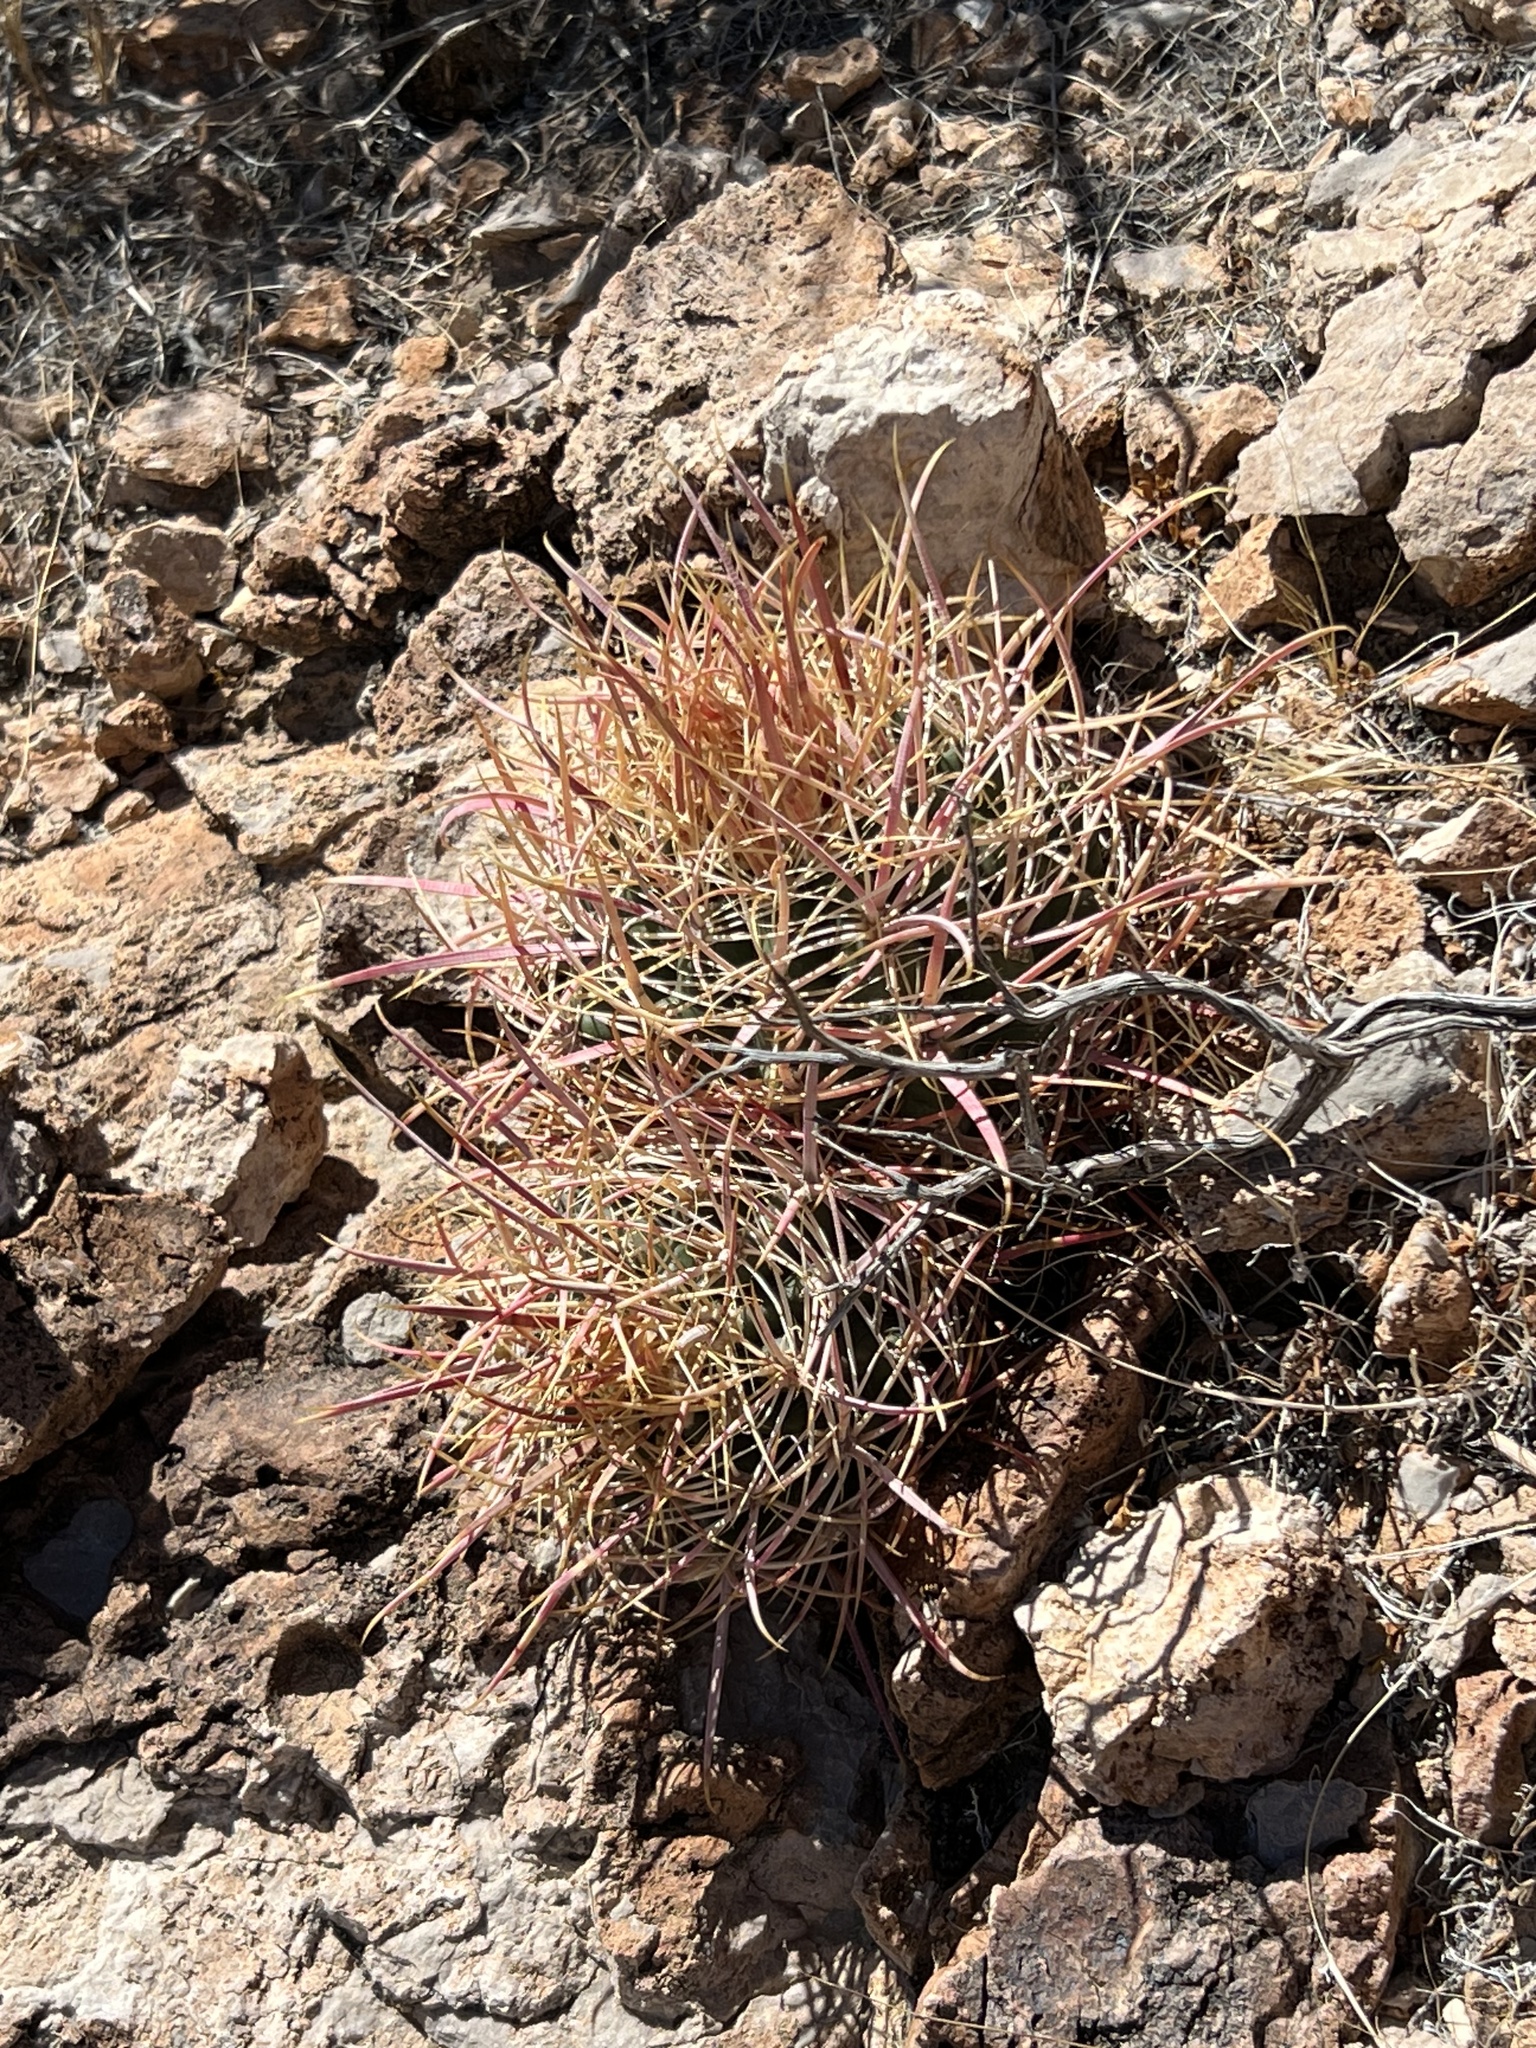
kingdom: Plantae
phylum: Tracheophyta
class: Magnoliopsida
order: Caryophyllales
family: Cactaceae
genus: Ferocactus
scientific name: Ferocactus cylindraceus
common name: California barrel cactus
